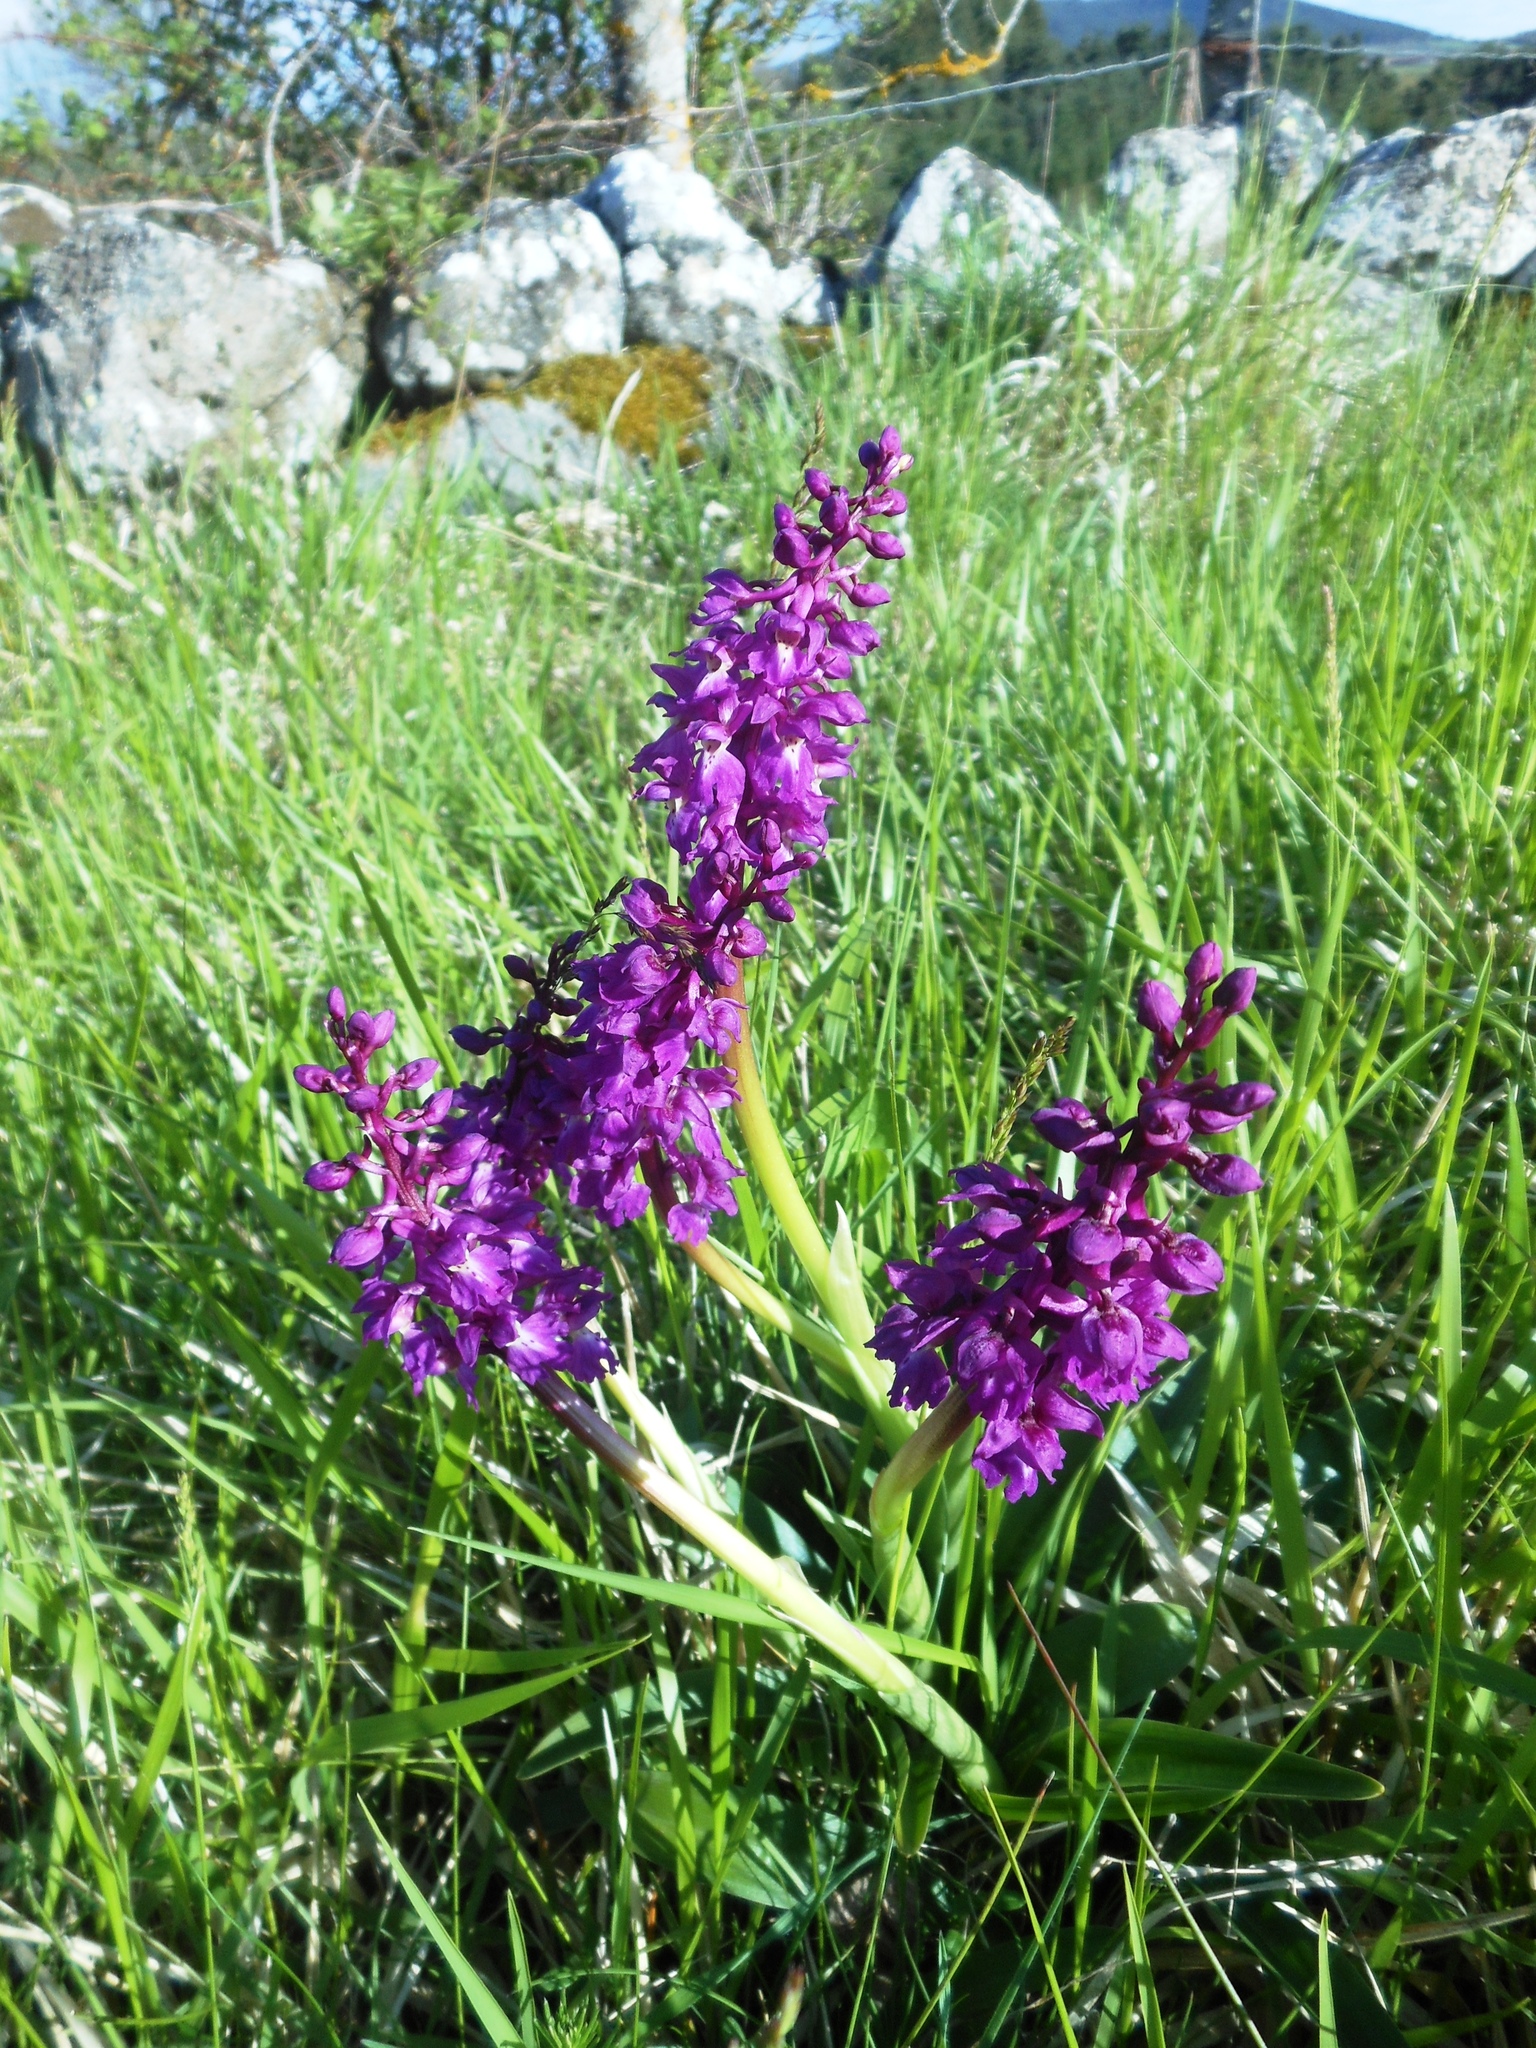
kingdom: Plantae
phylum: Tracheophyta
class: Liliopsida
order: Asparagales
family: Orchidaceae
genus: Orchis
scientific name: Orchis mascula
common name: Early-purple orchid
